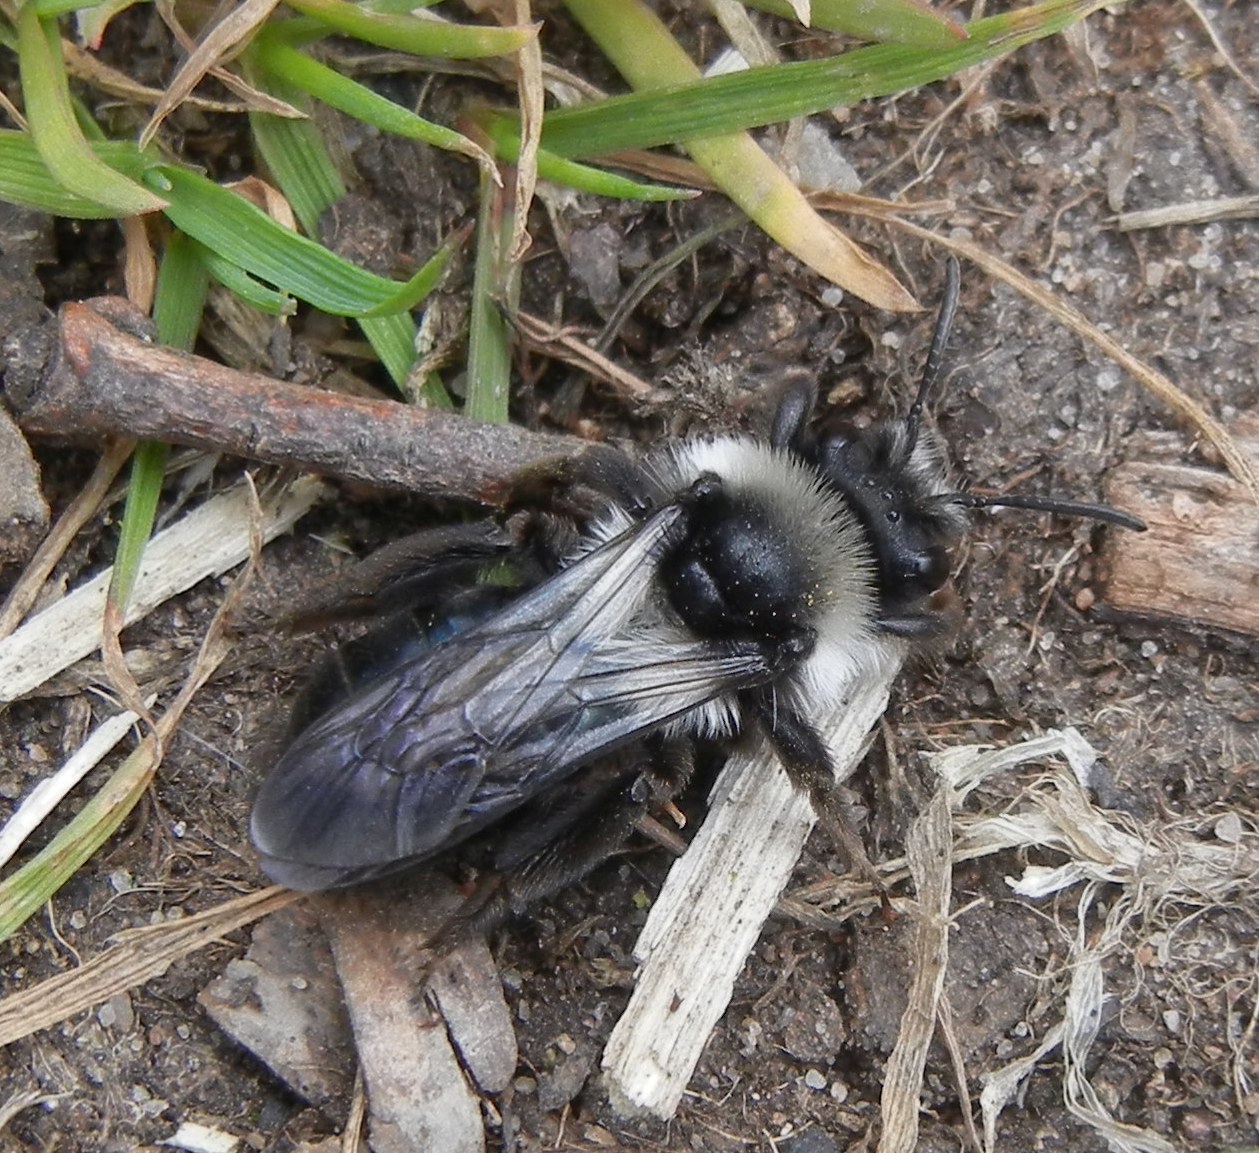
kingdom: Animalia
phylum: Arthropoda
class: Insecta
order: Hymenoptera
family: Andrenidae
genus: Andrena
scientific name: Andrena cineraria
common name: Ashy mining bee
